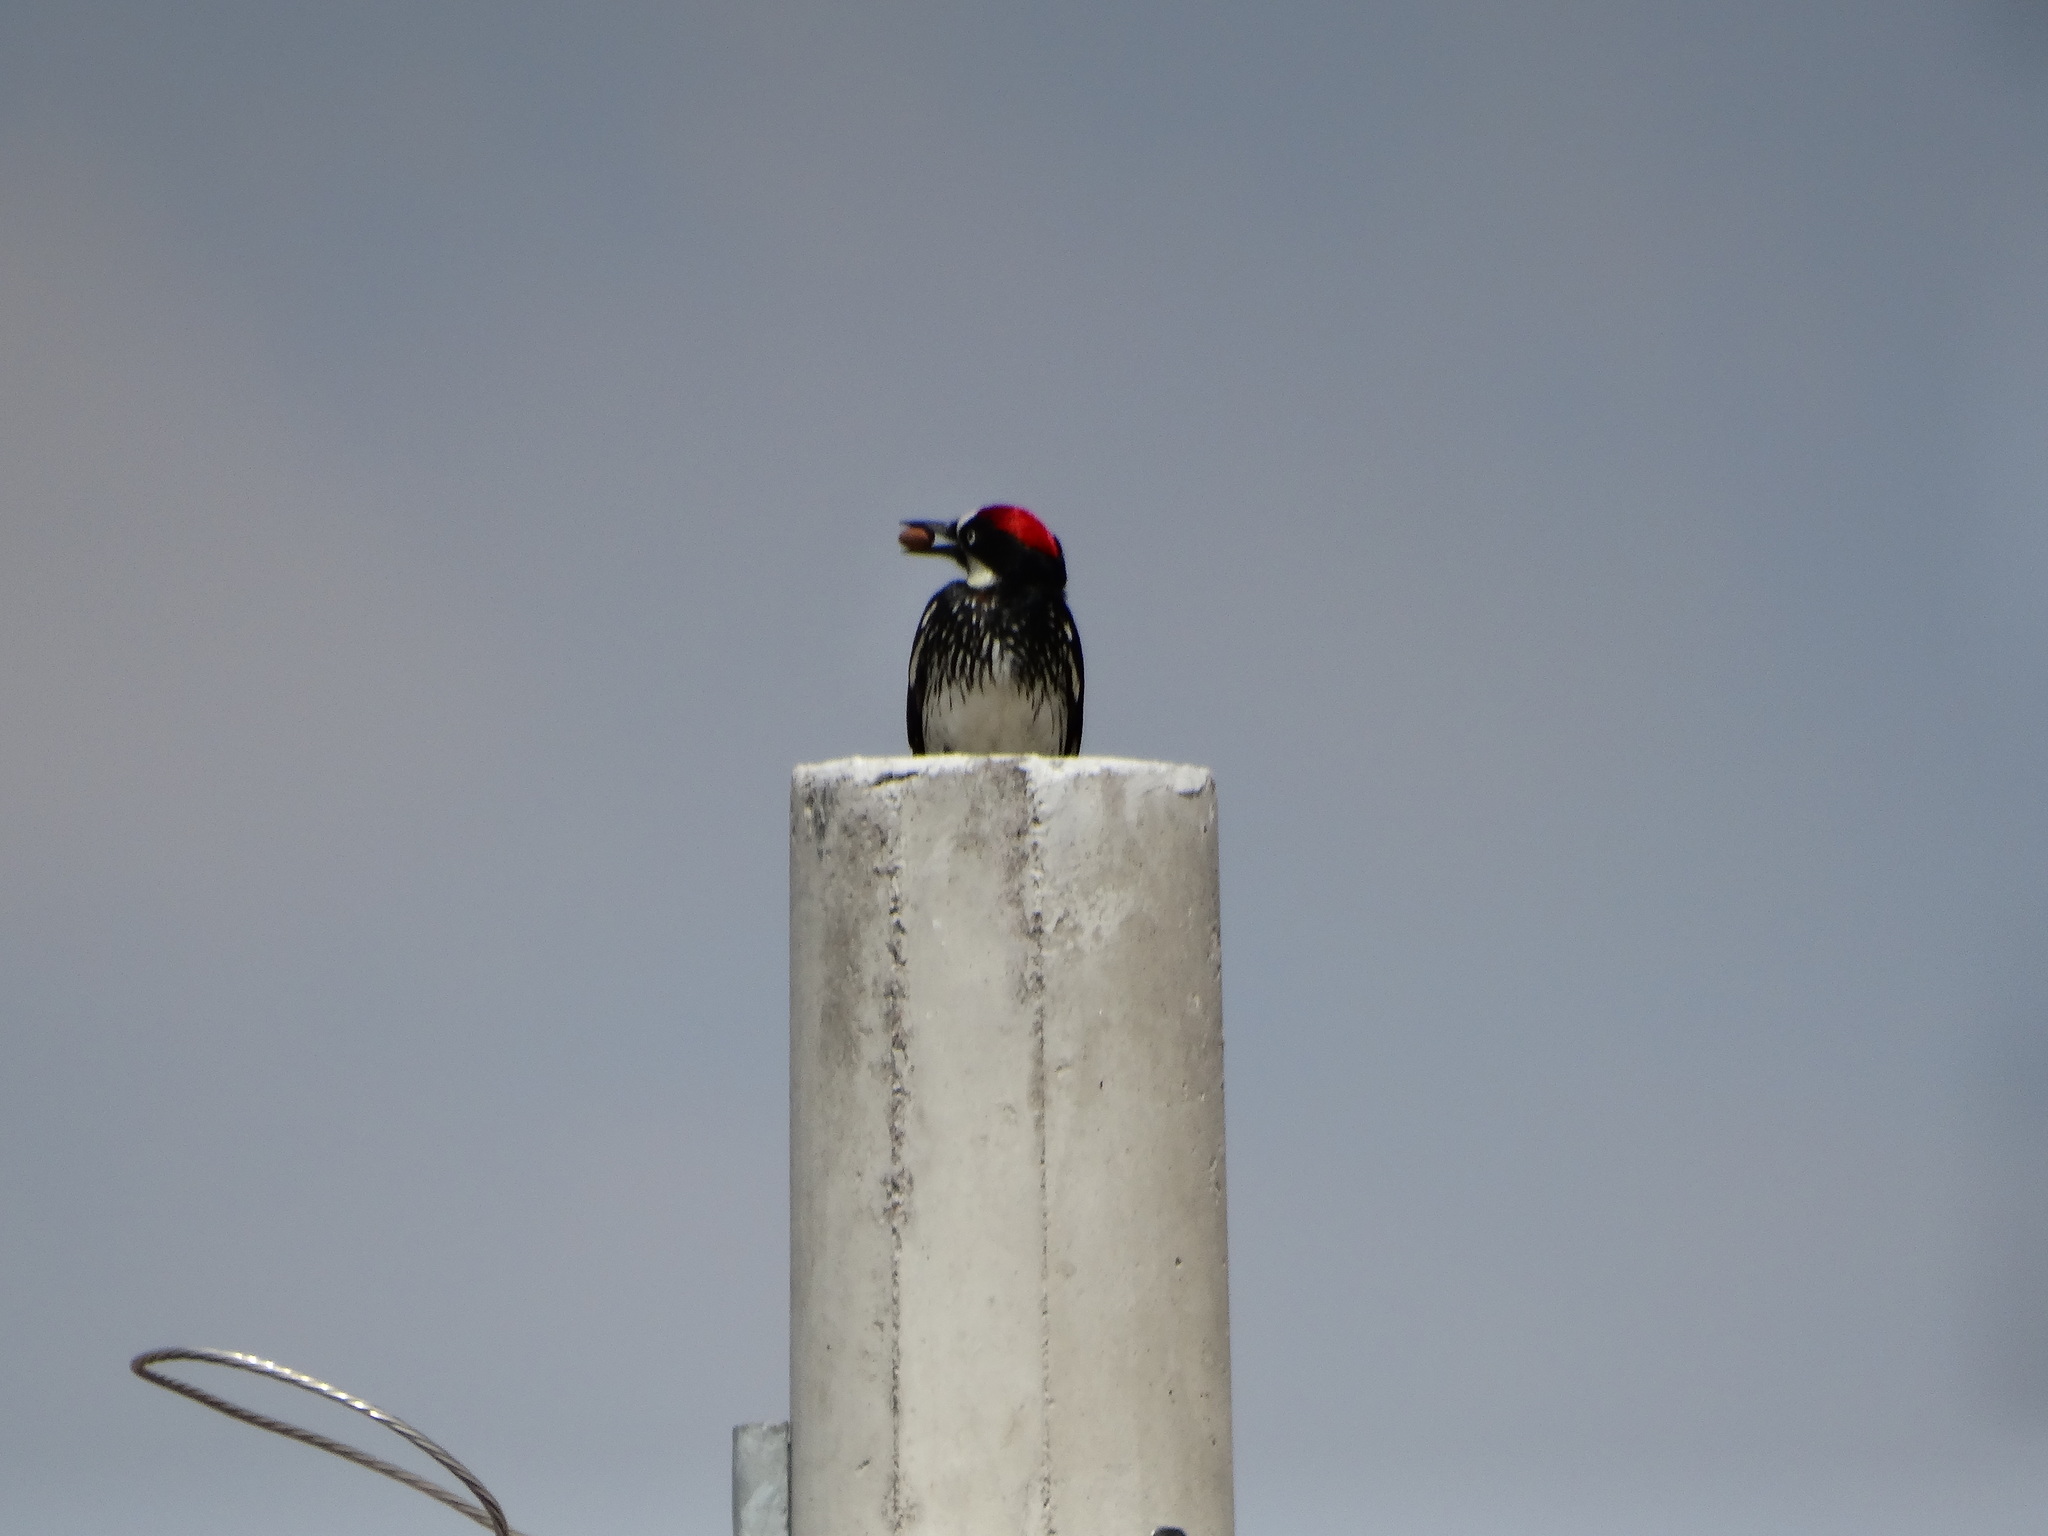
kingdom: Animalia
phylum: Chordata
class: Aves
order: Piciformes
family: Picidae
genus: Melanerpes
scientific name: Melanerpes formicivorus
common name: Acorn woodpecker
